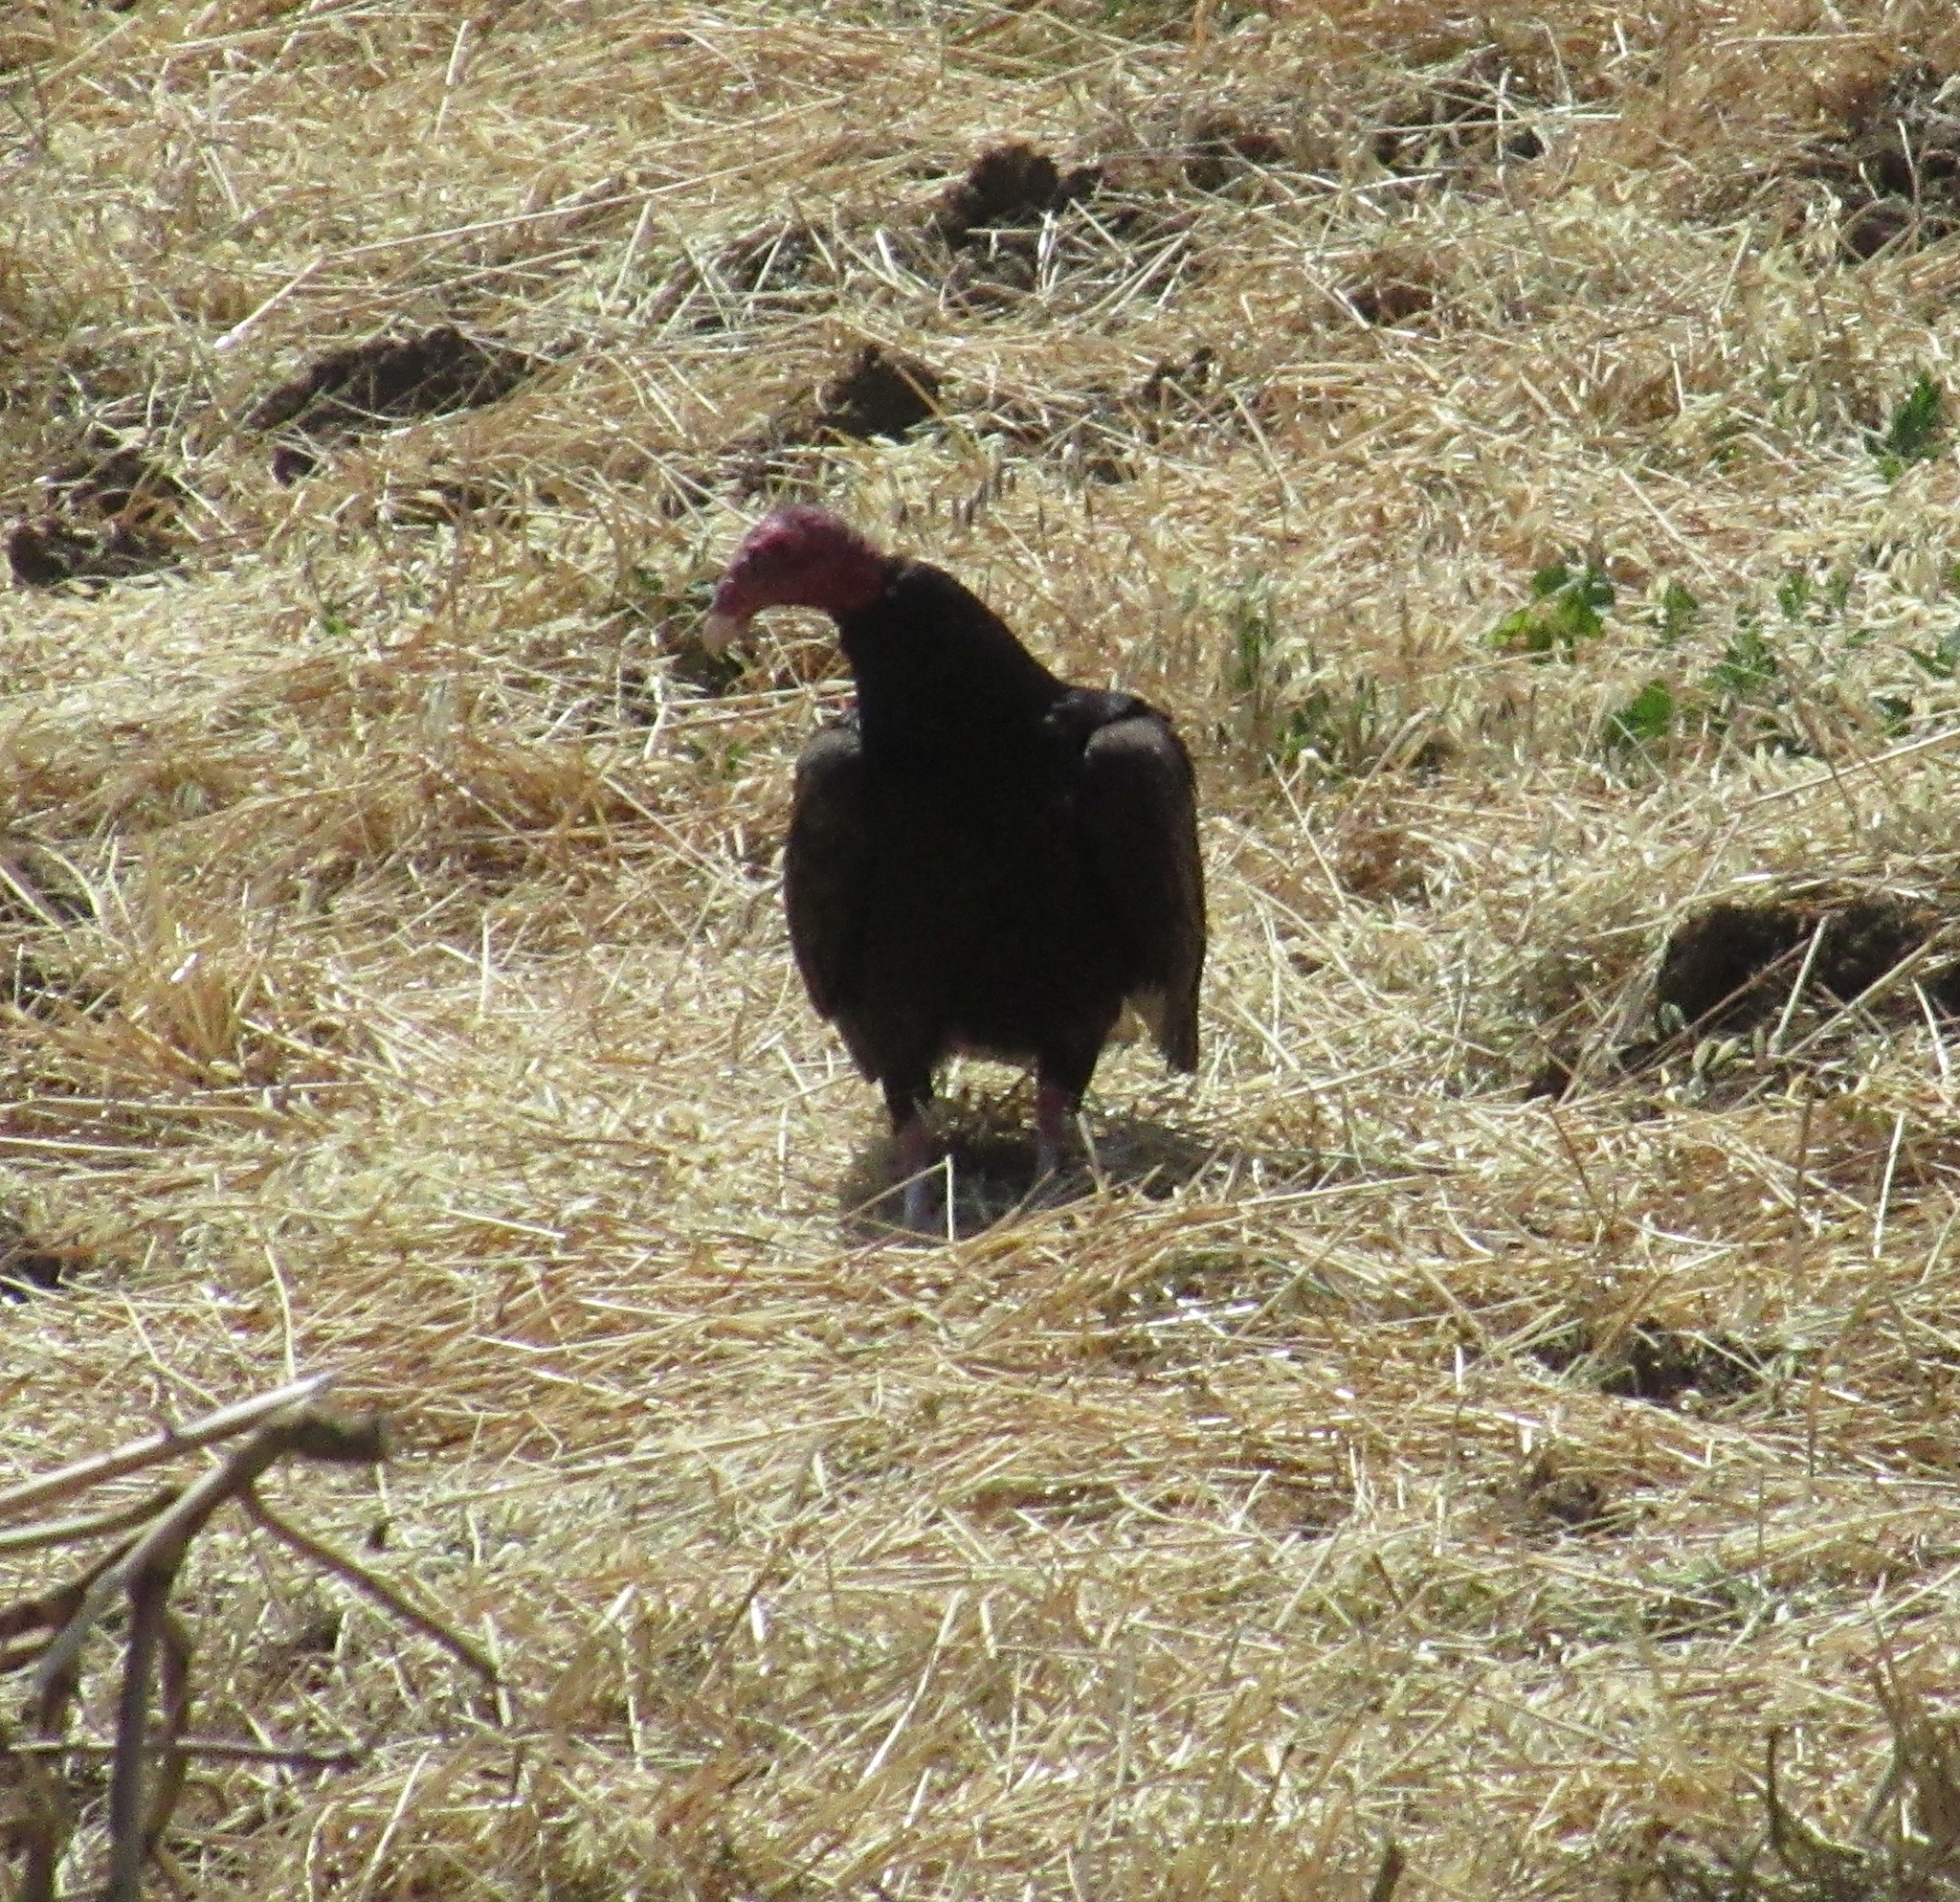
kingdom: Animalia
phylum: Chordata
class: Aves
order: Accipitriformes
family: Cathartidae
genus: Cathartes
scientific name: Cathartes aura
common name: Turkey vulture
